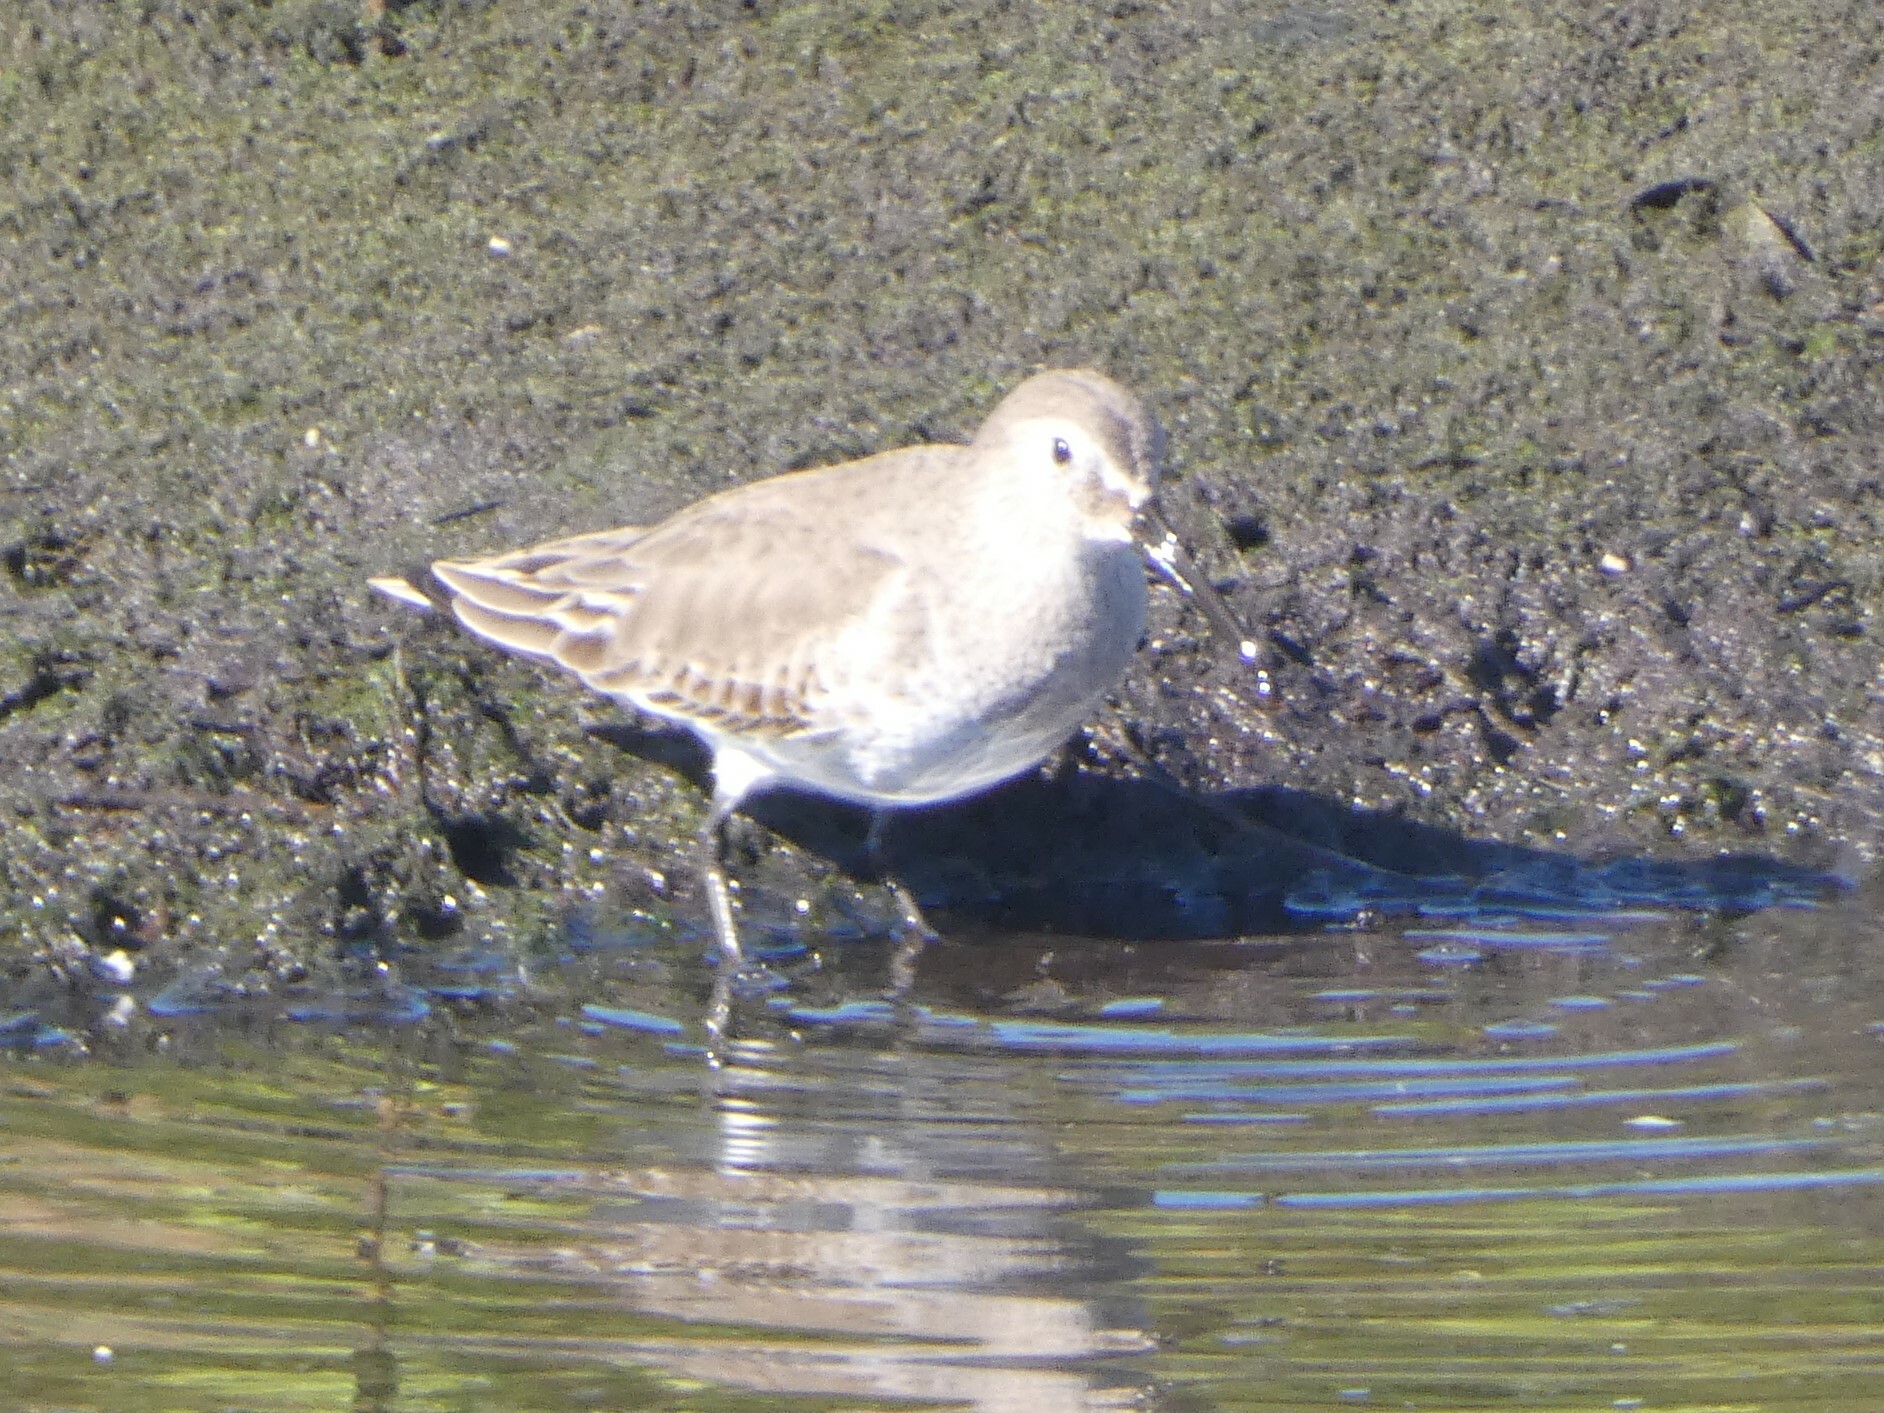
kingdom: Animalia
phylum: Chordata
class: Aves
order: Charadriiformes
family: Scolopacidae
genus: Calidris
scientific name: Calidris alpina
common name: Dunlin
